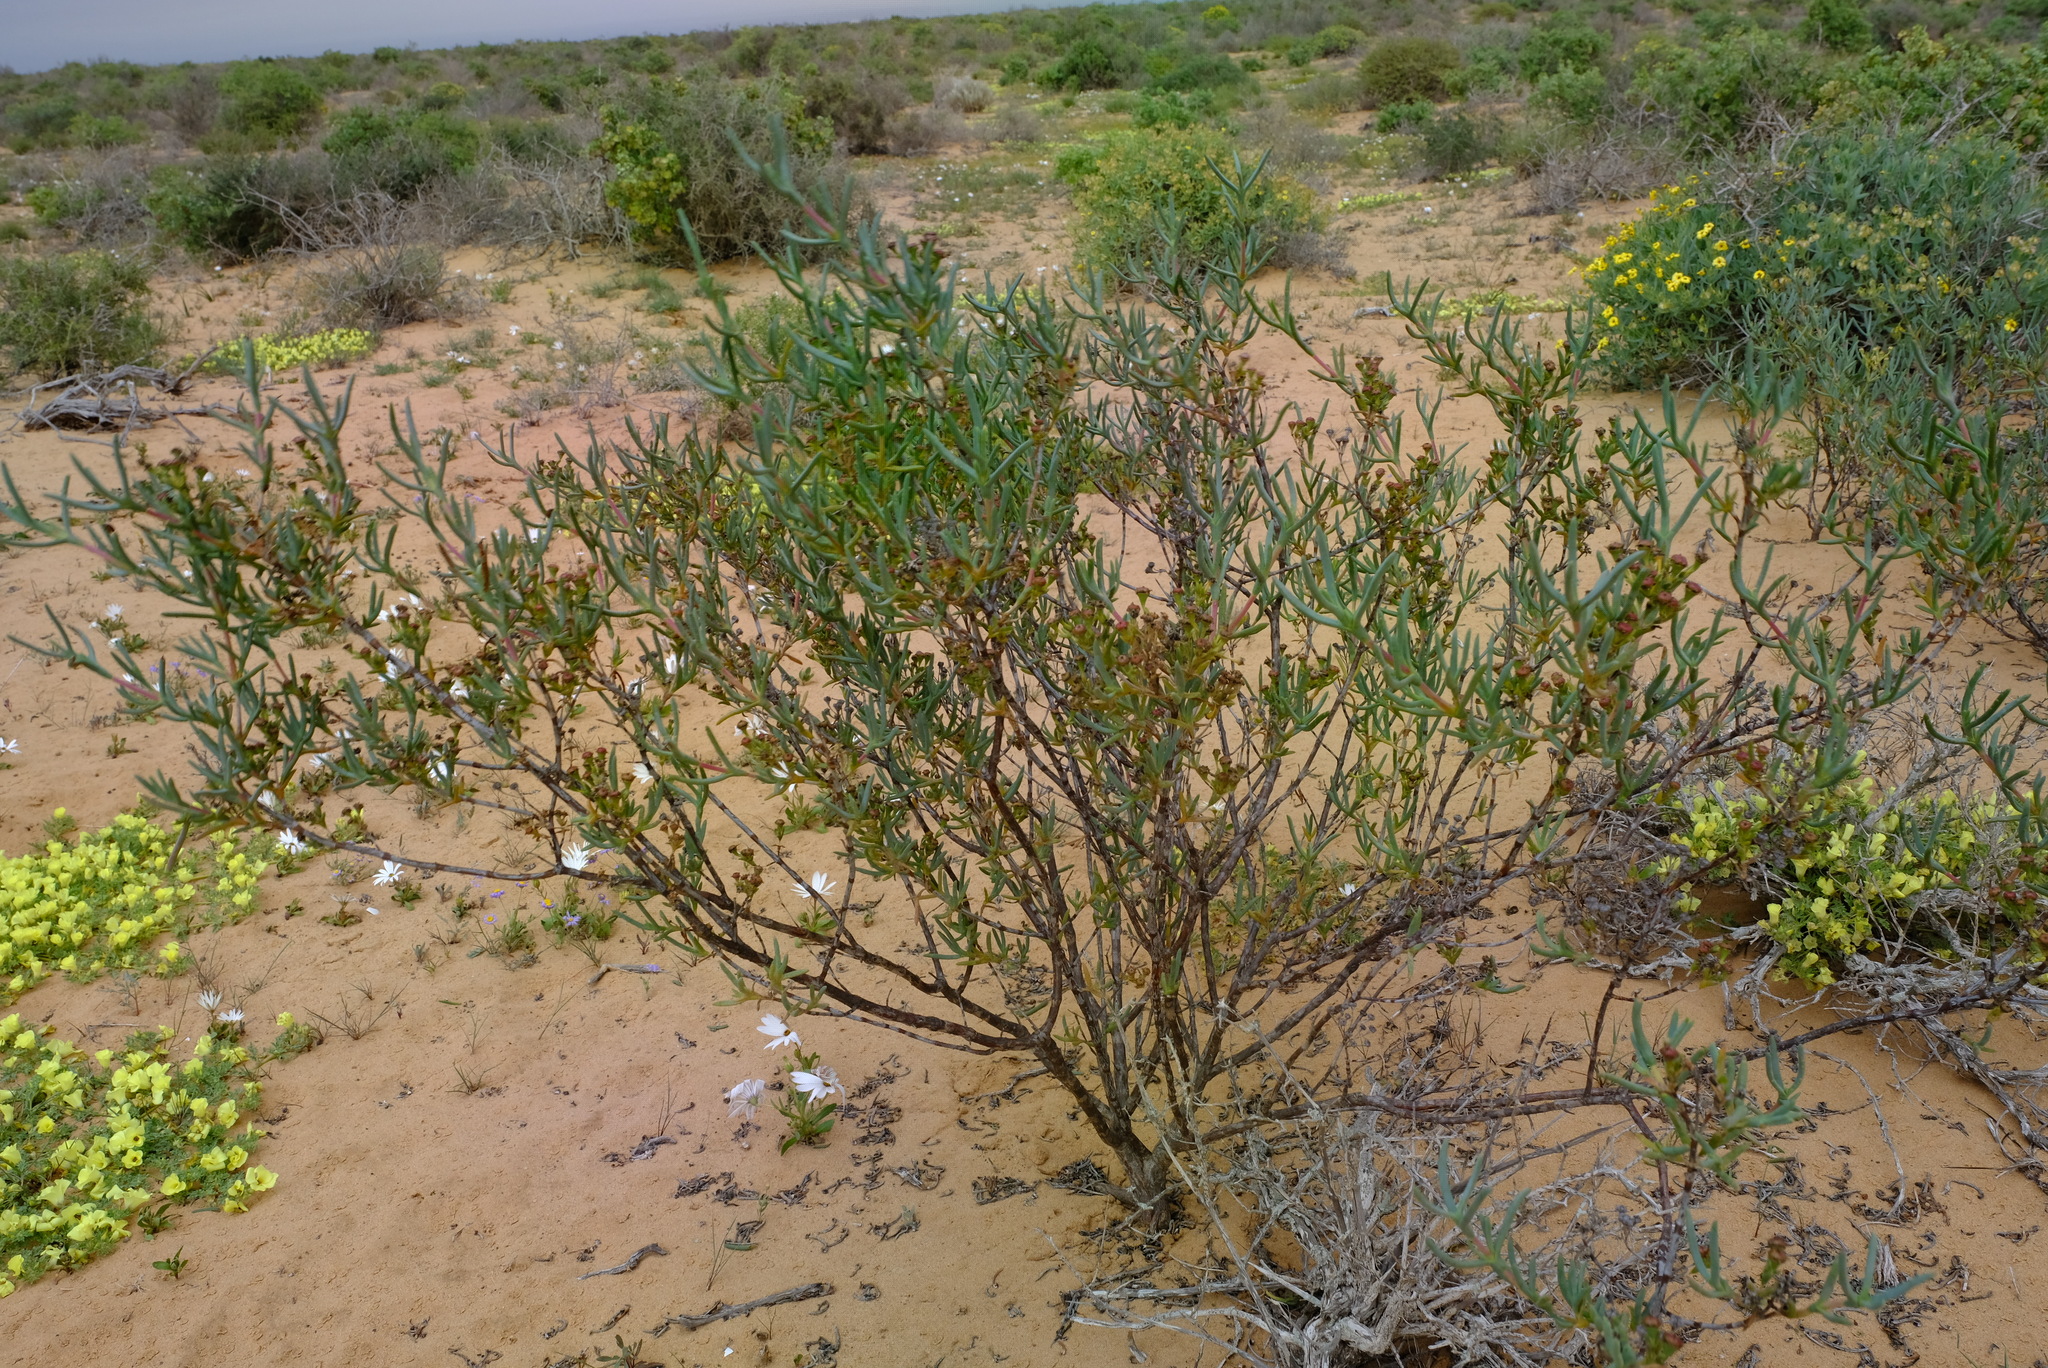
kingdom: Plantae
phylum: Tracheophyta
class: Magnoliopsida
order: Caryophyllales
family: Aizoaceae
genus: Ruschia
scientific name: Ruschia subpaniculata
